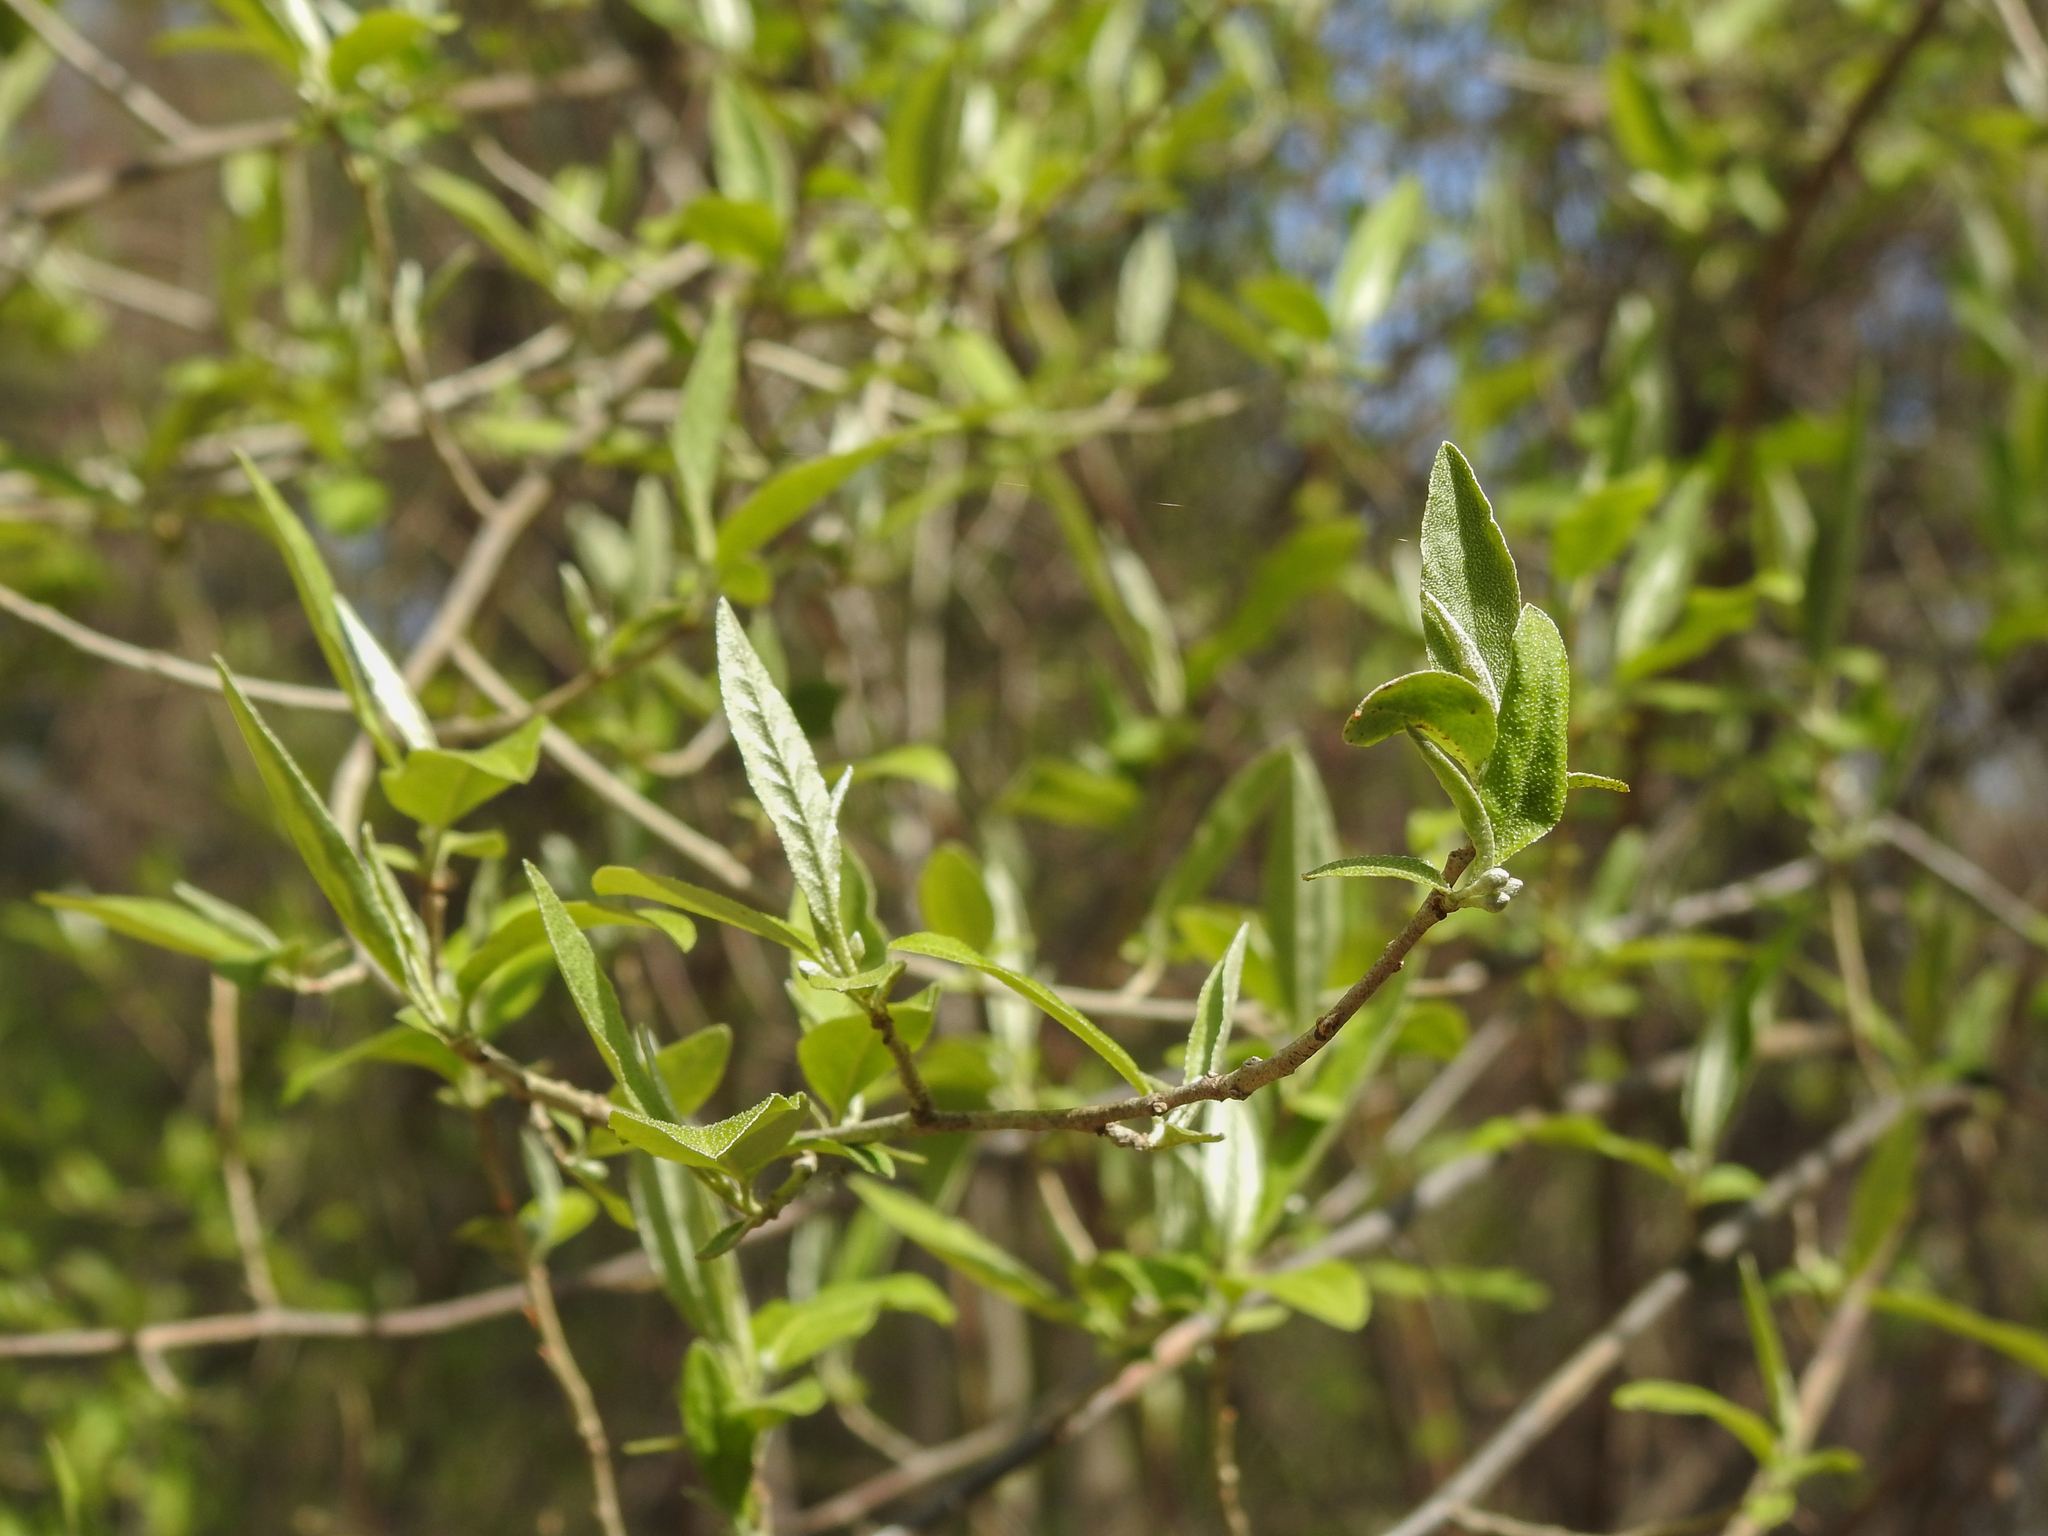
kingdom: Plantae
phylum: Tracheophyta
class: Magnoliopsida
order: Rosales
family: Elaeagnaceae
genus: Elaeagnus
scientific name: Elaeagnus umbellata
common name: Autumn olive
